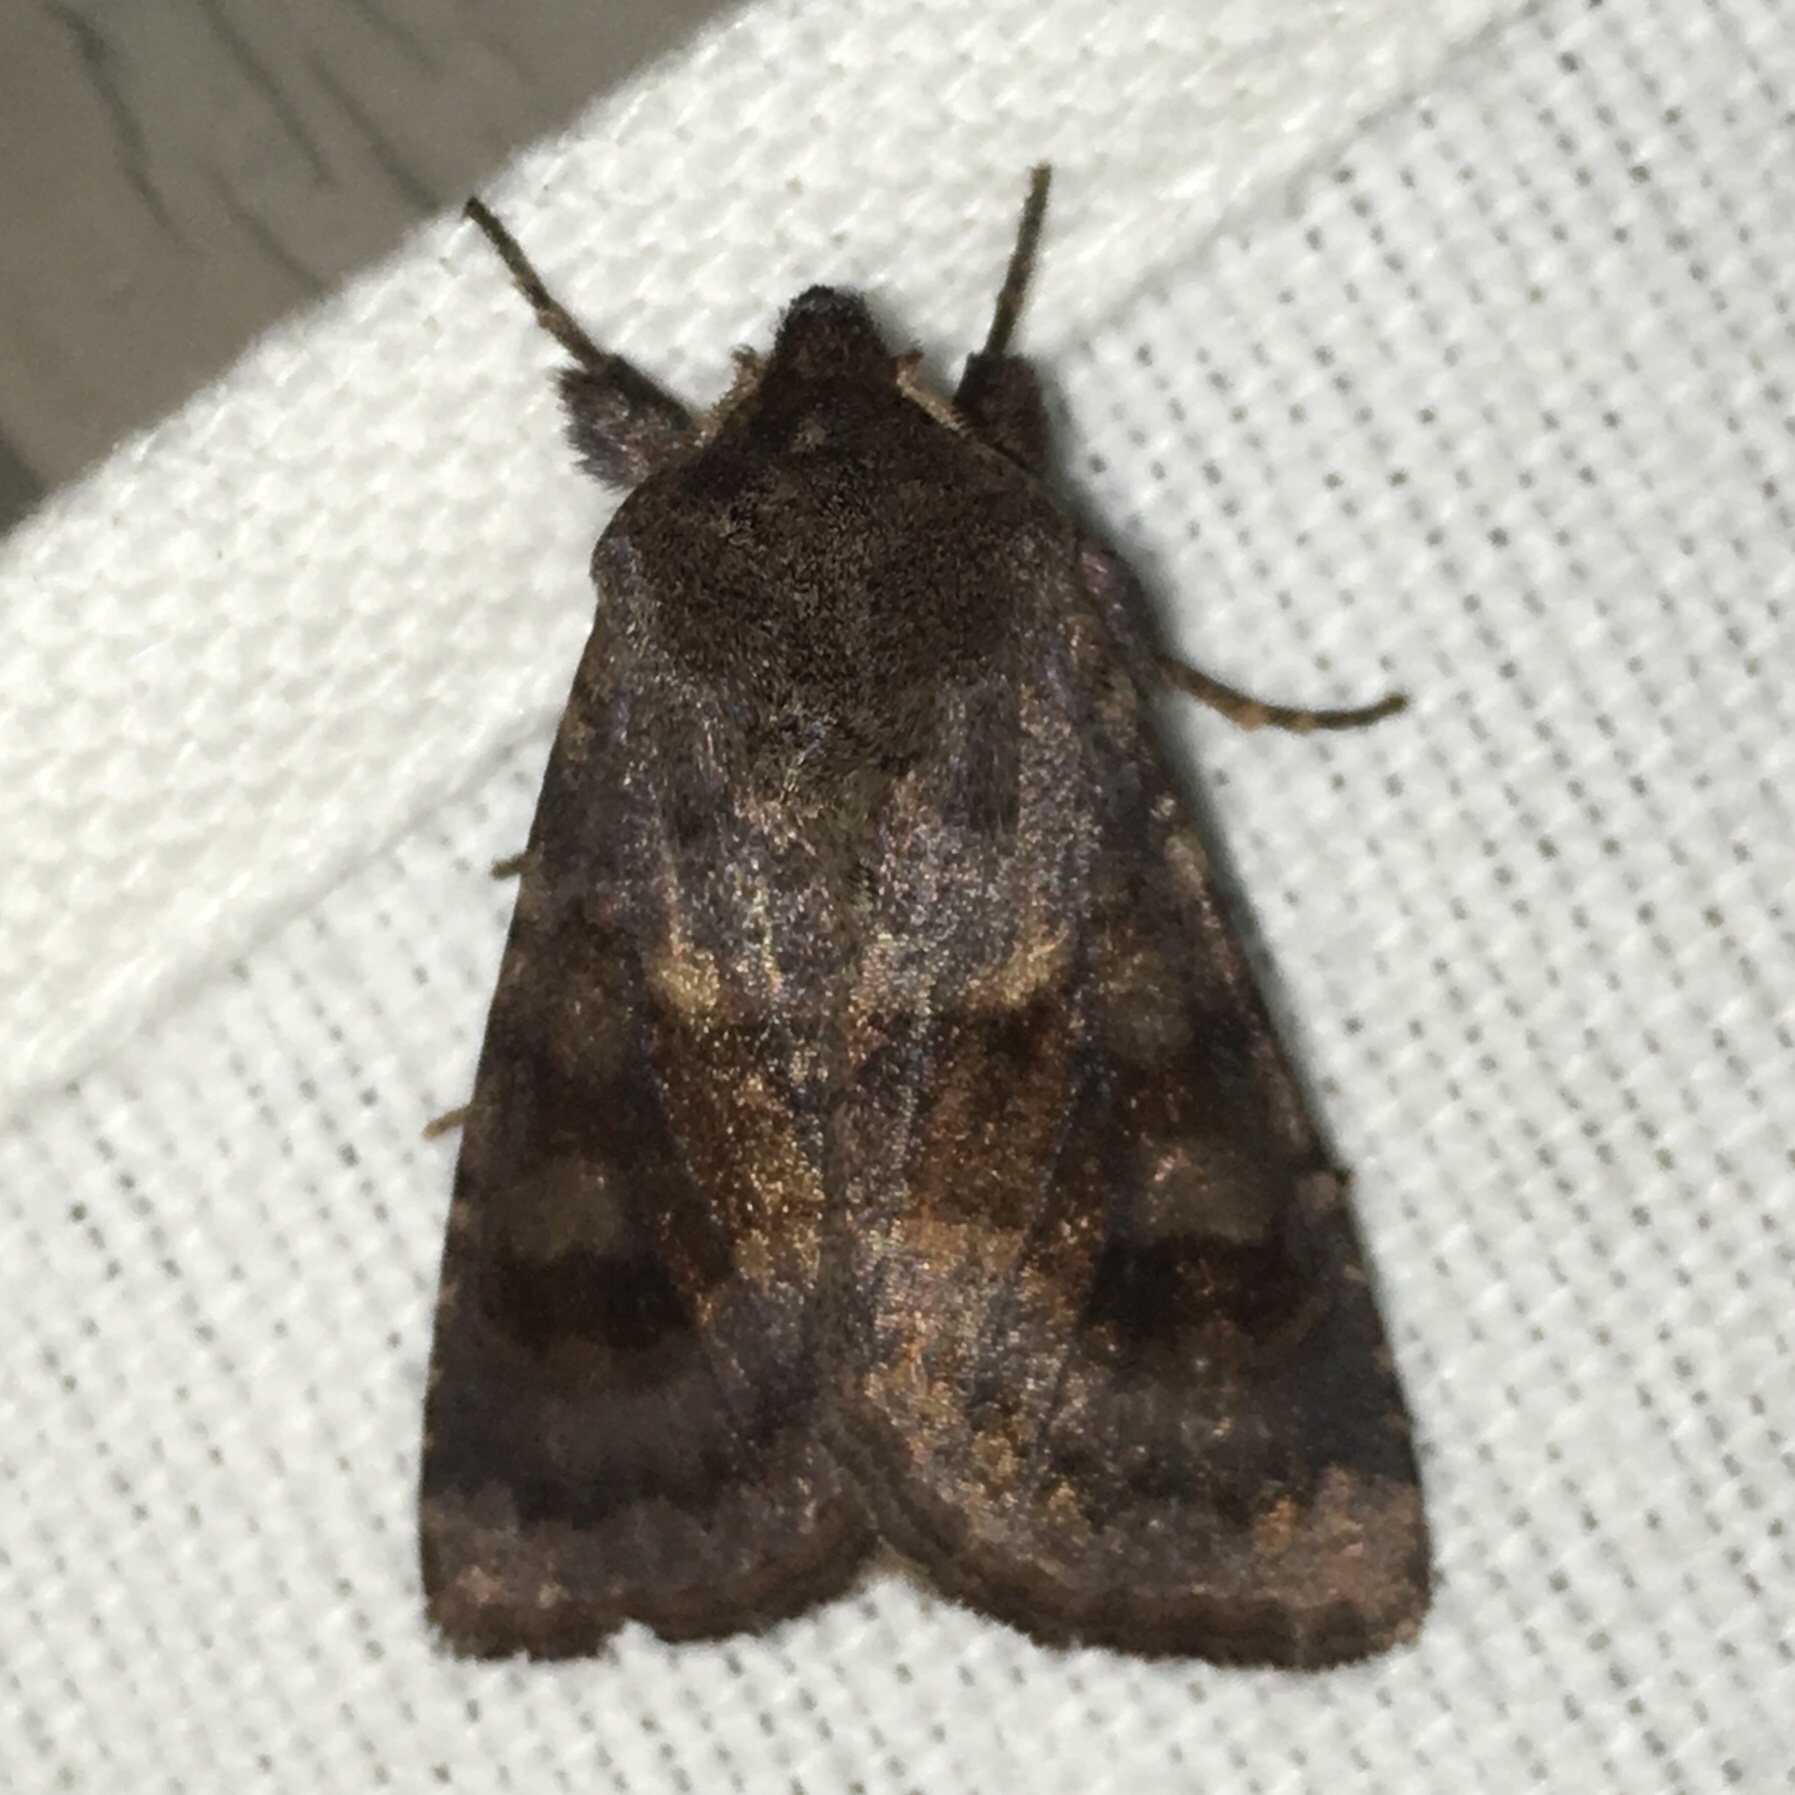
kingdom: Animalia
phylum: Arthropoda
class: Insecta
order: Lepidoptera
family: Noctuidae
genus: Nephelodes
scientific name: Nephelodes minians
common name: Bronzed cutworm
